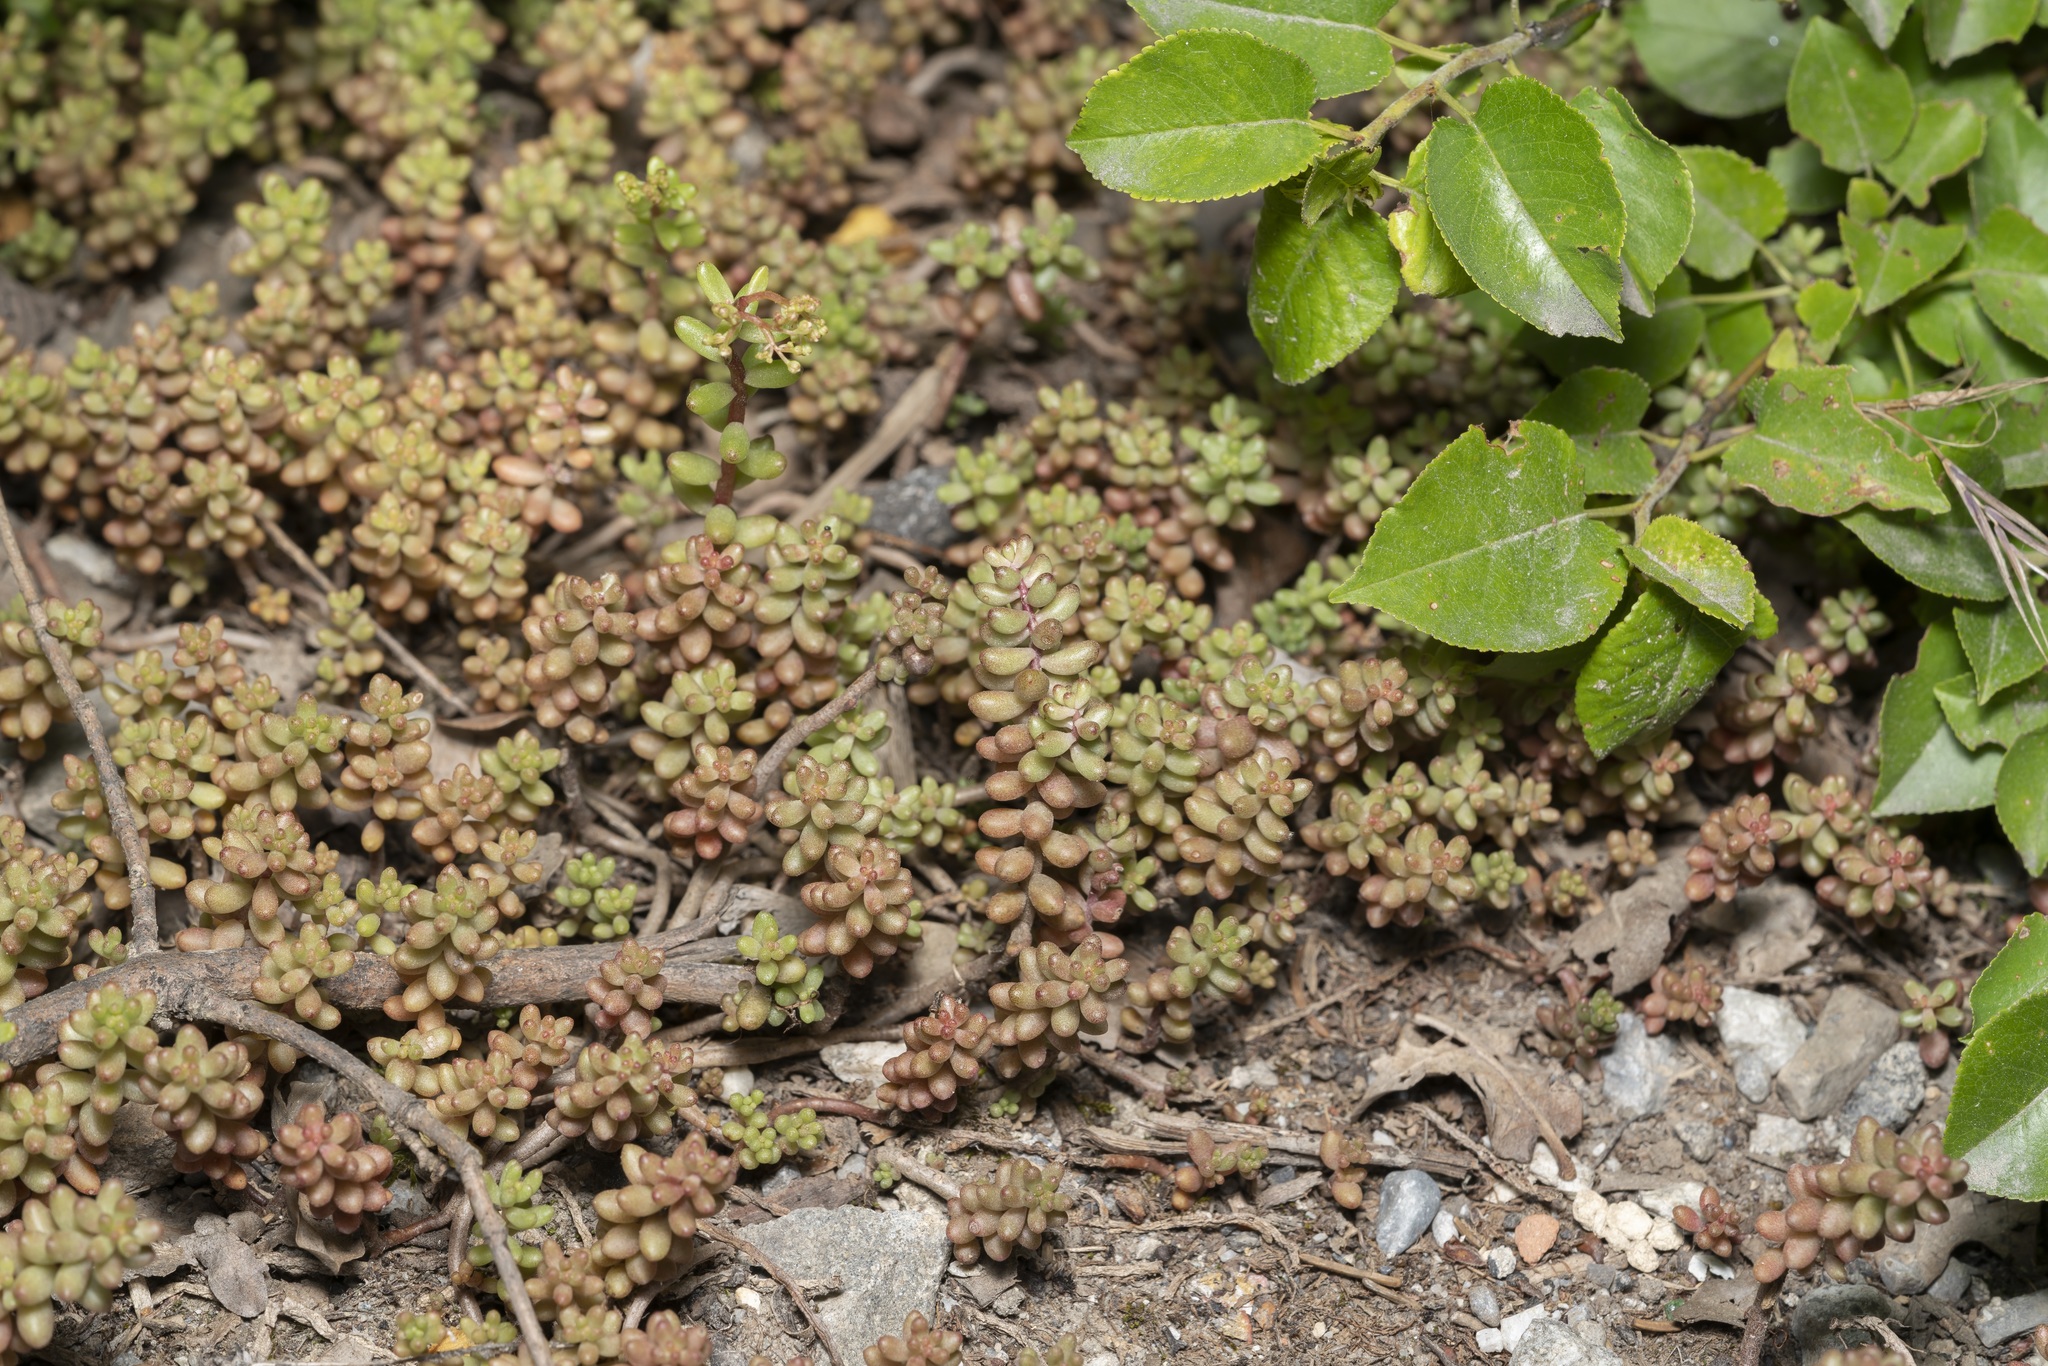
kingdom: Plantae
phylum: Tracheophyta
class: Magnoliopsida
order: Saxifragales
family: Crassulaceae
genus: Sedum
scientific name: Sedum album
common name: White stonecrop
